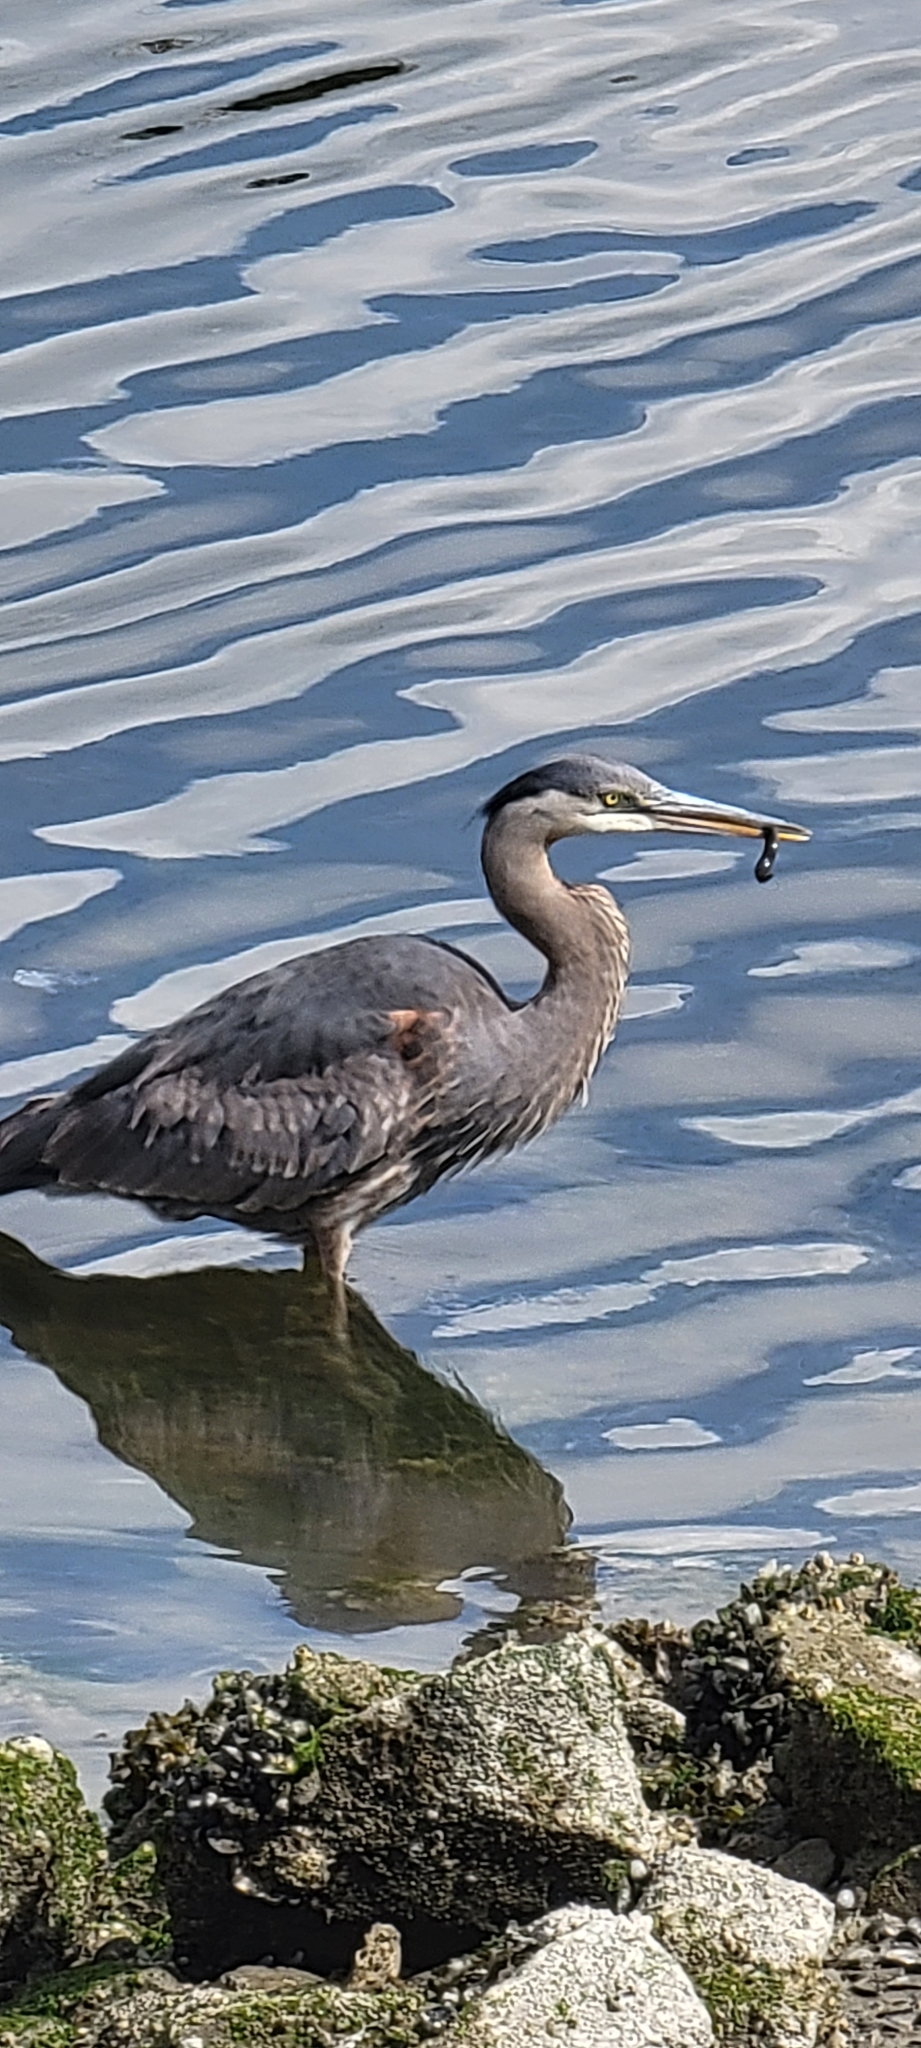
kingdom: Animalia
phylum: Chordata
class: Aves
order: Pelecaniformes
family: Ardeidae
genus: Ardea
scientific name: Ardea herodias
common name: Great blue heron
